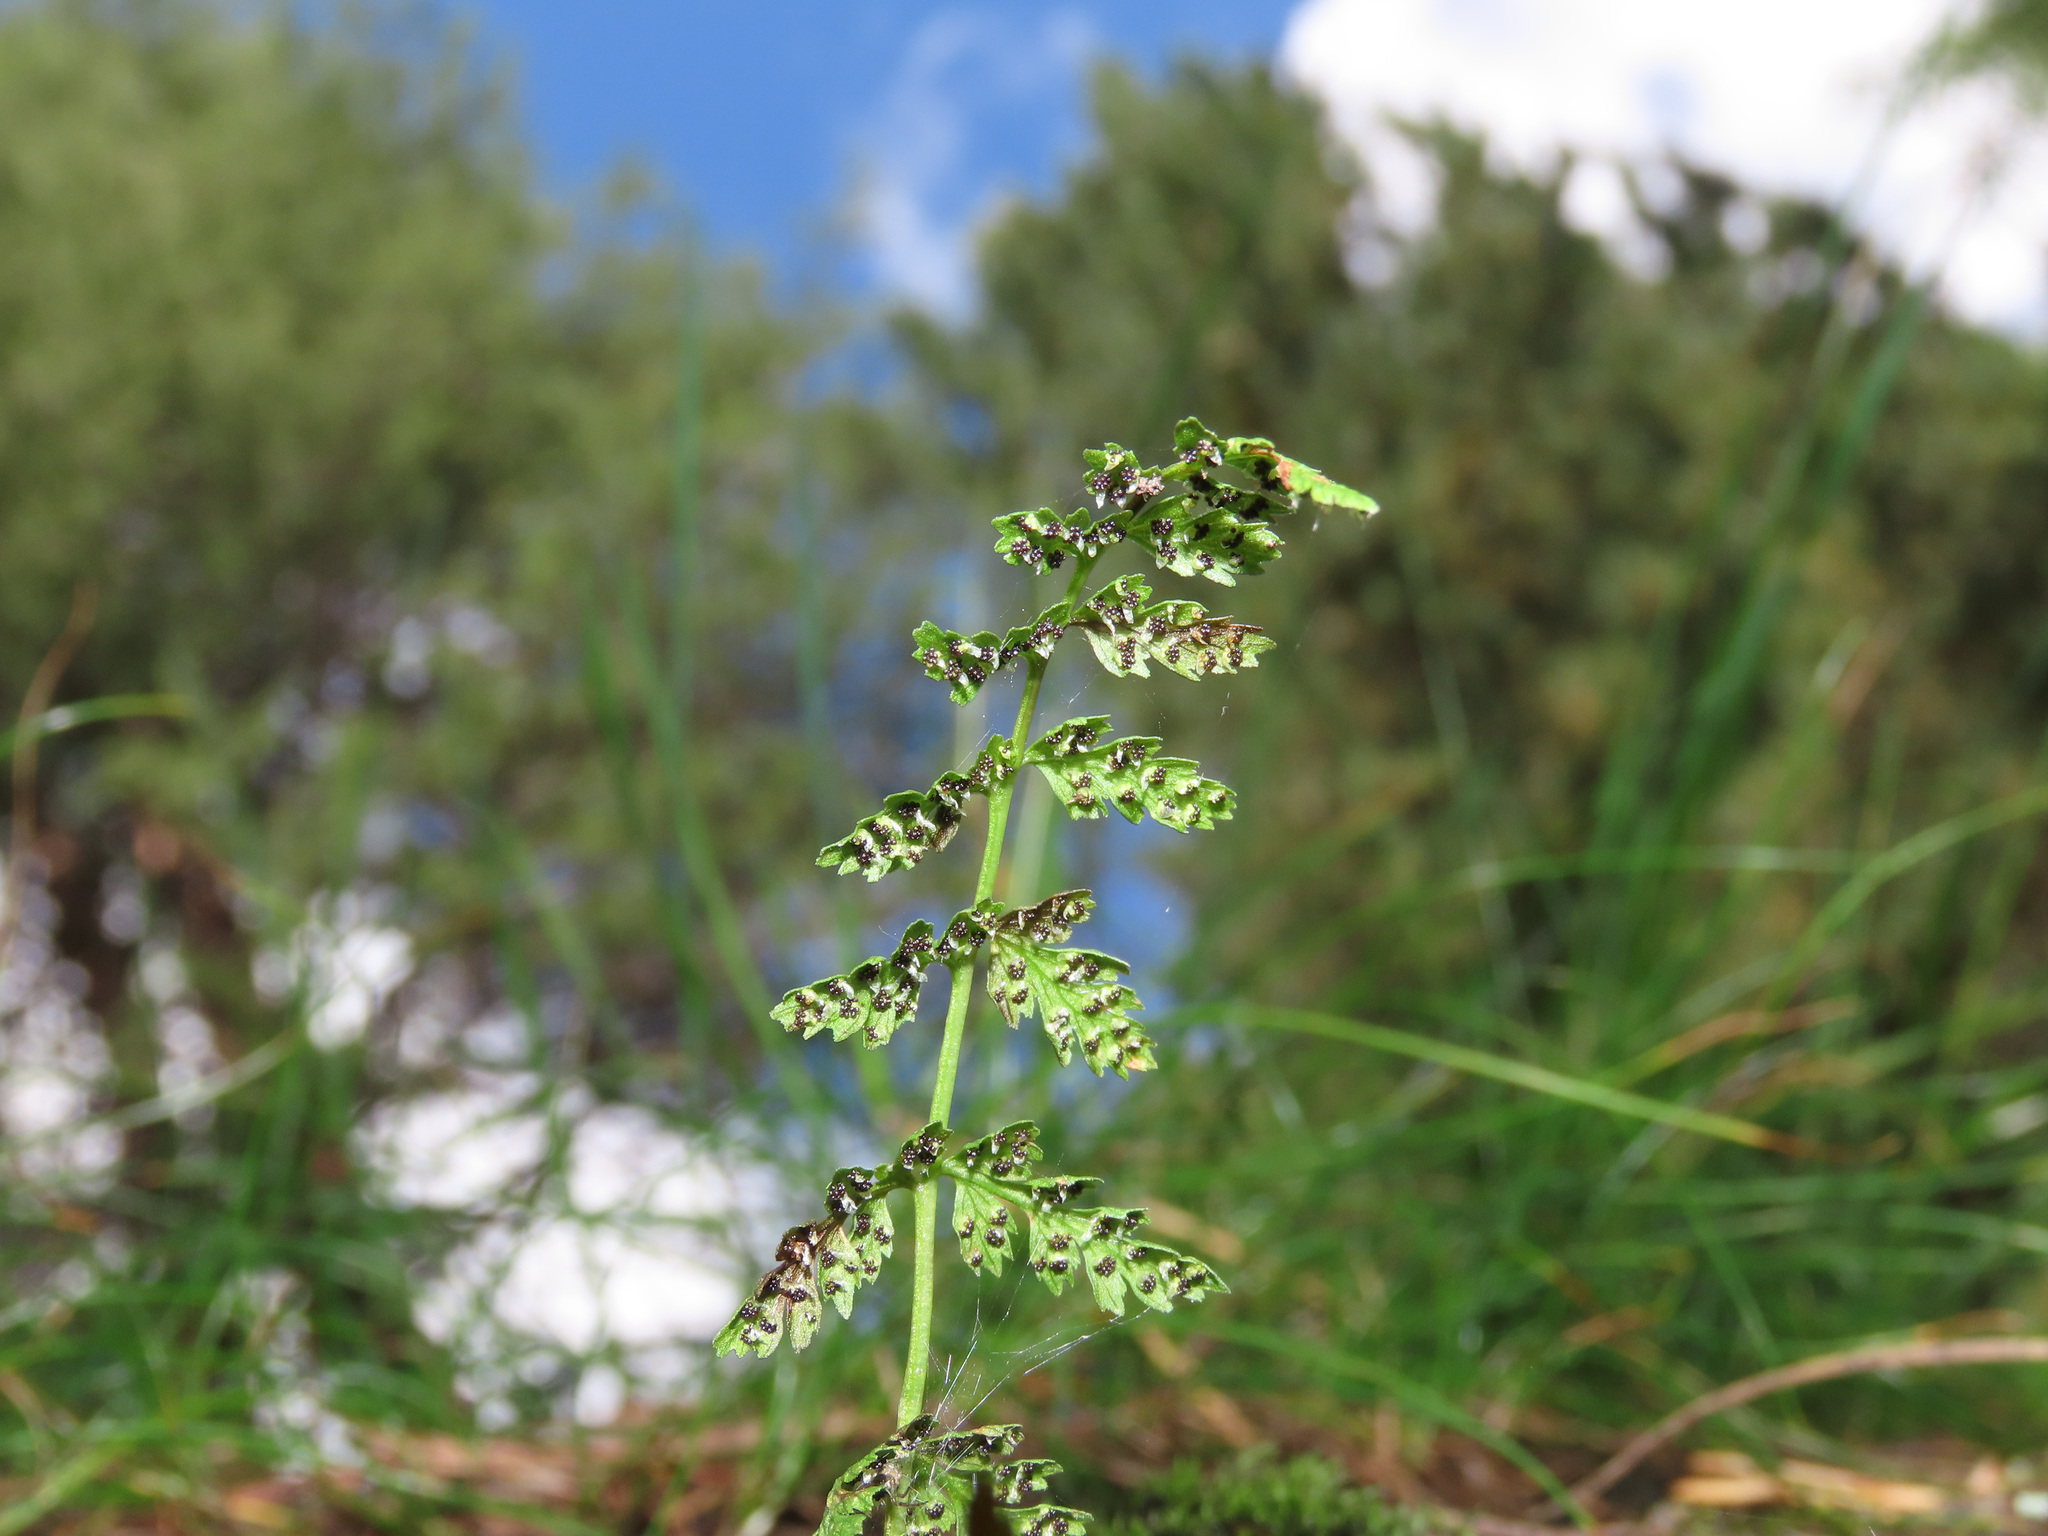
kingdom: Plantae
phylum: Tracheophyta
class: Polypodiopsida
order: Polypodiales
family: Cystopteridaceae
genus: Cystopteris
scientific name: Cystopteris fragilis
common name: Brittle bladder fern
